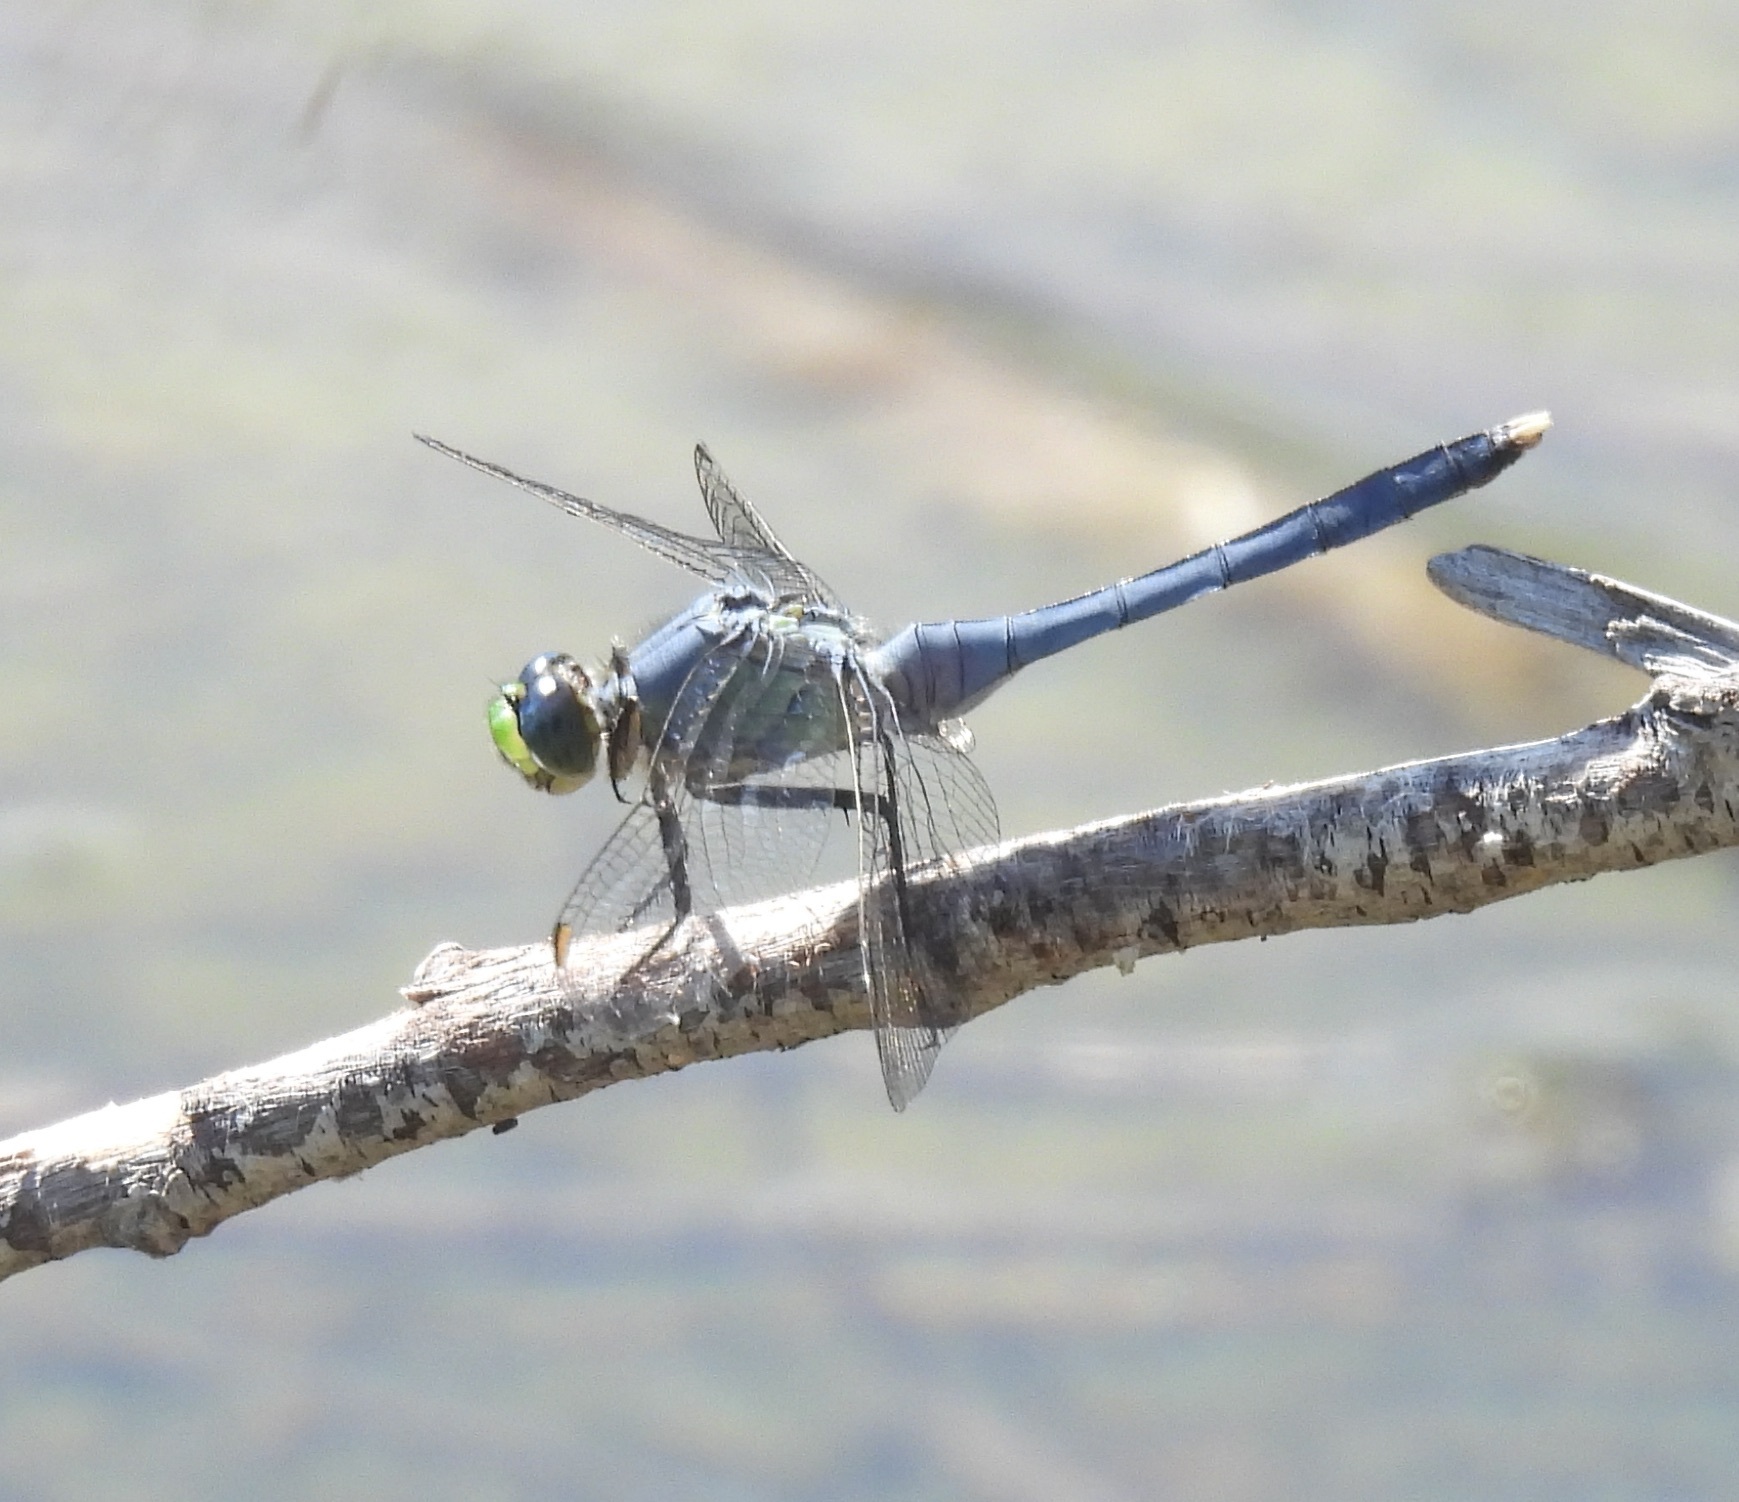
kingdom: Animalia
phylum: Arthropoda
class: Insecta
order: Odonata
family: Libellulidae
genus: Erythemis
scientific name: Erythemis simplicicollis
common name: Eastern pondhawk
